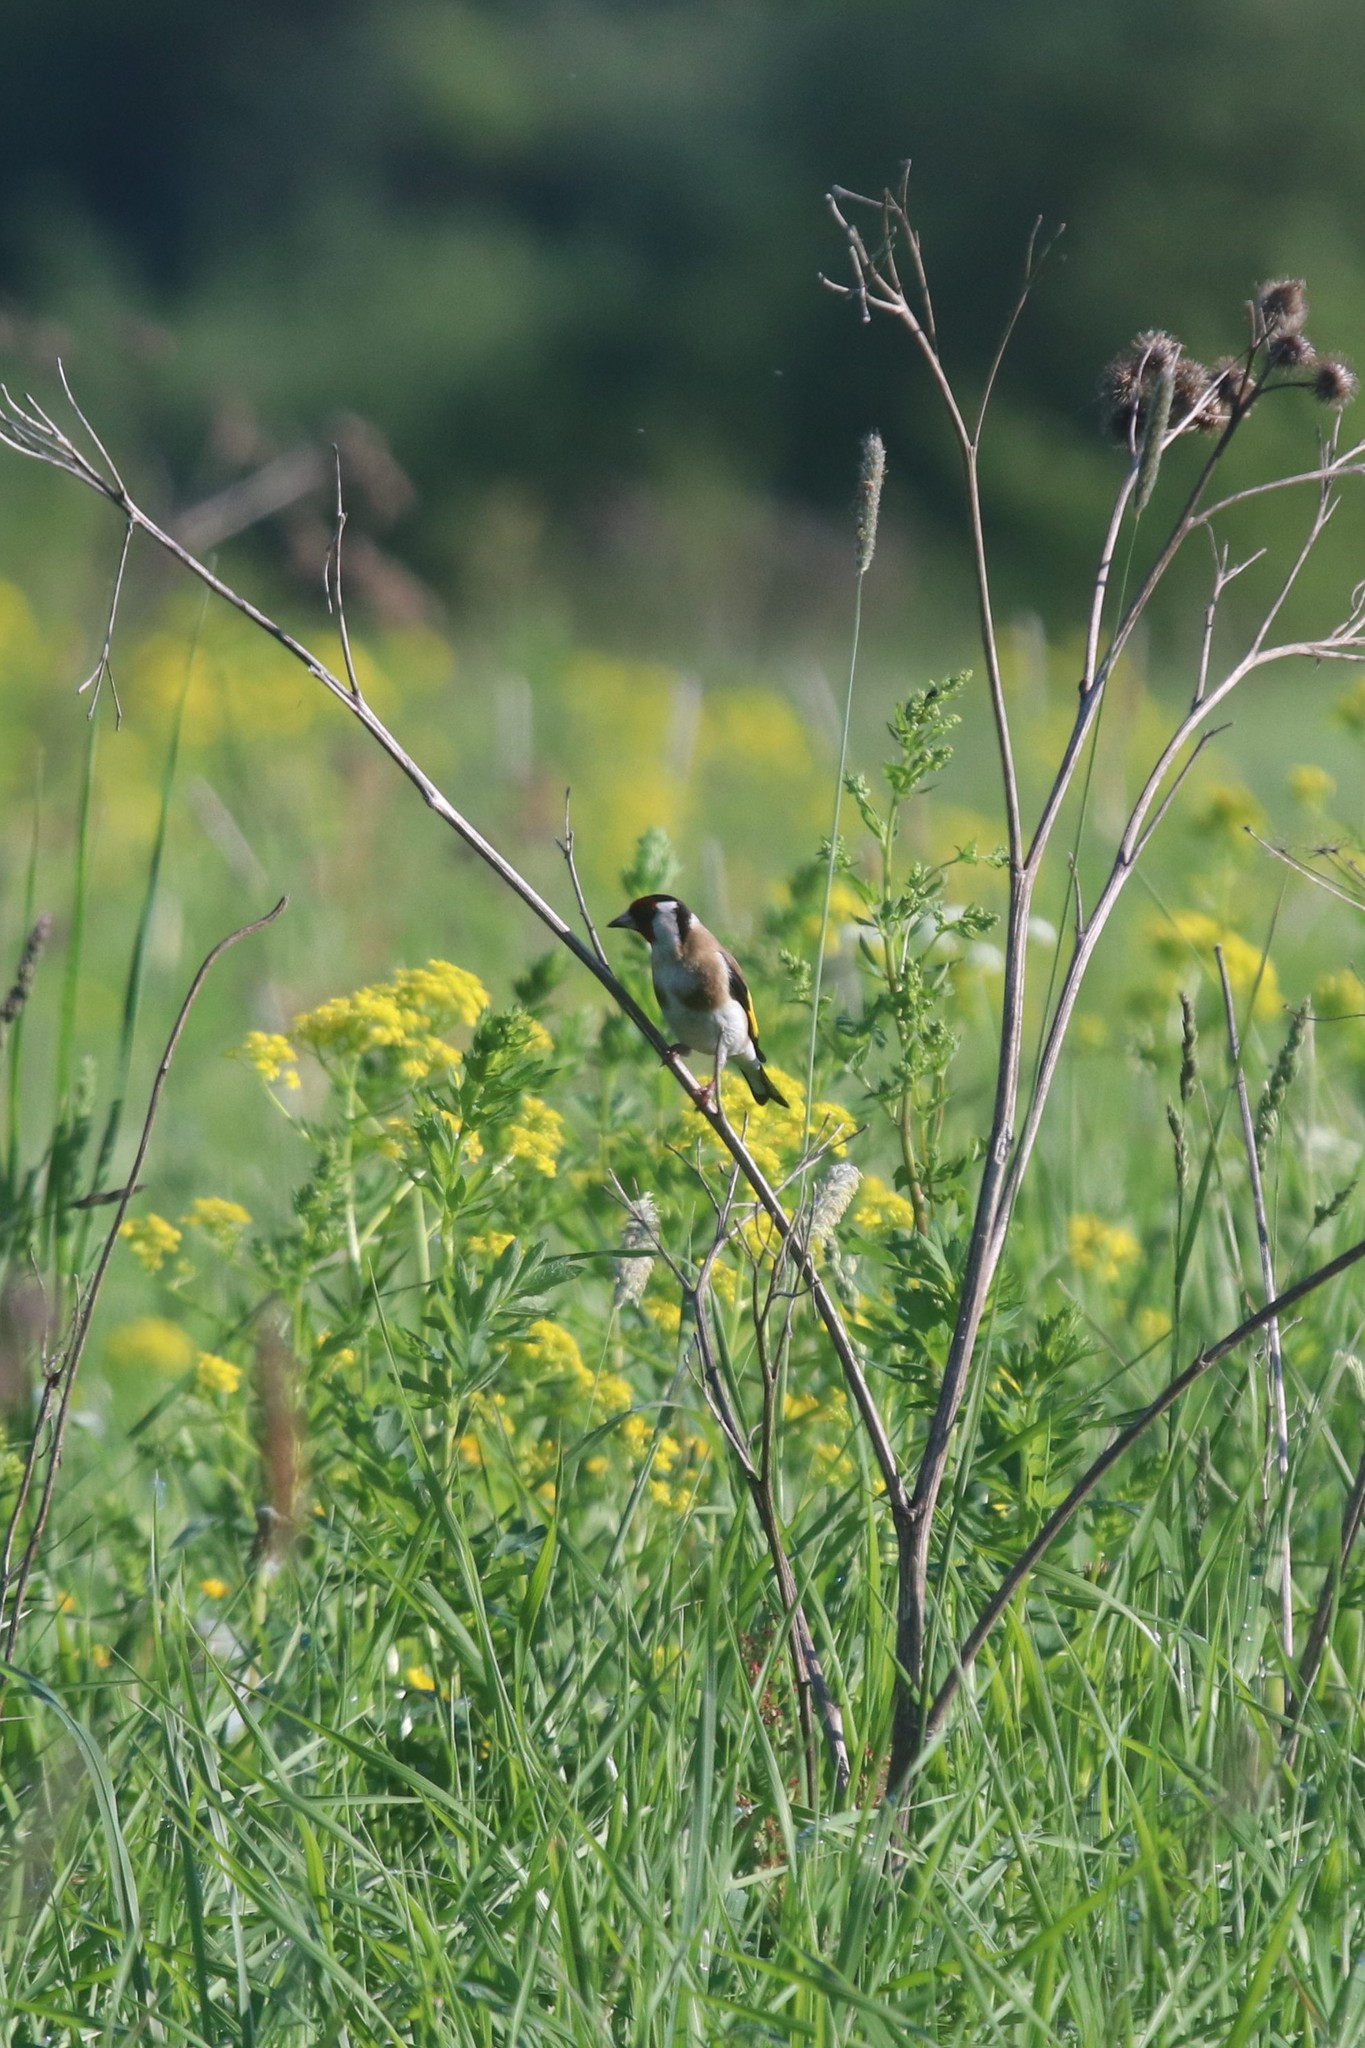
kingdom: Animalia
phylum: Chordata
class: Aves
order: Passeriformes
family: Fringillidae
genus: Carduelis
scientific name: Carduelis carduelis
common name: European goldfinch
